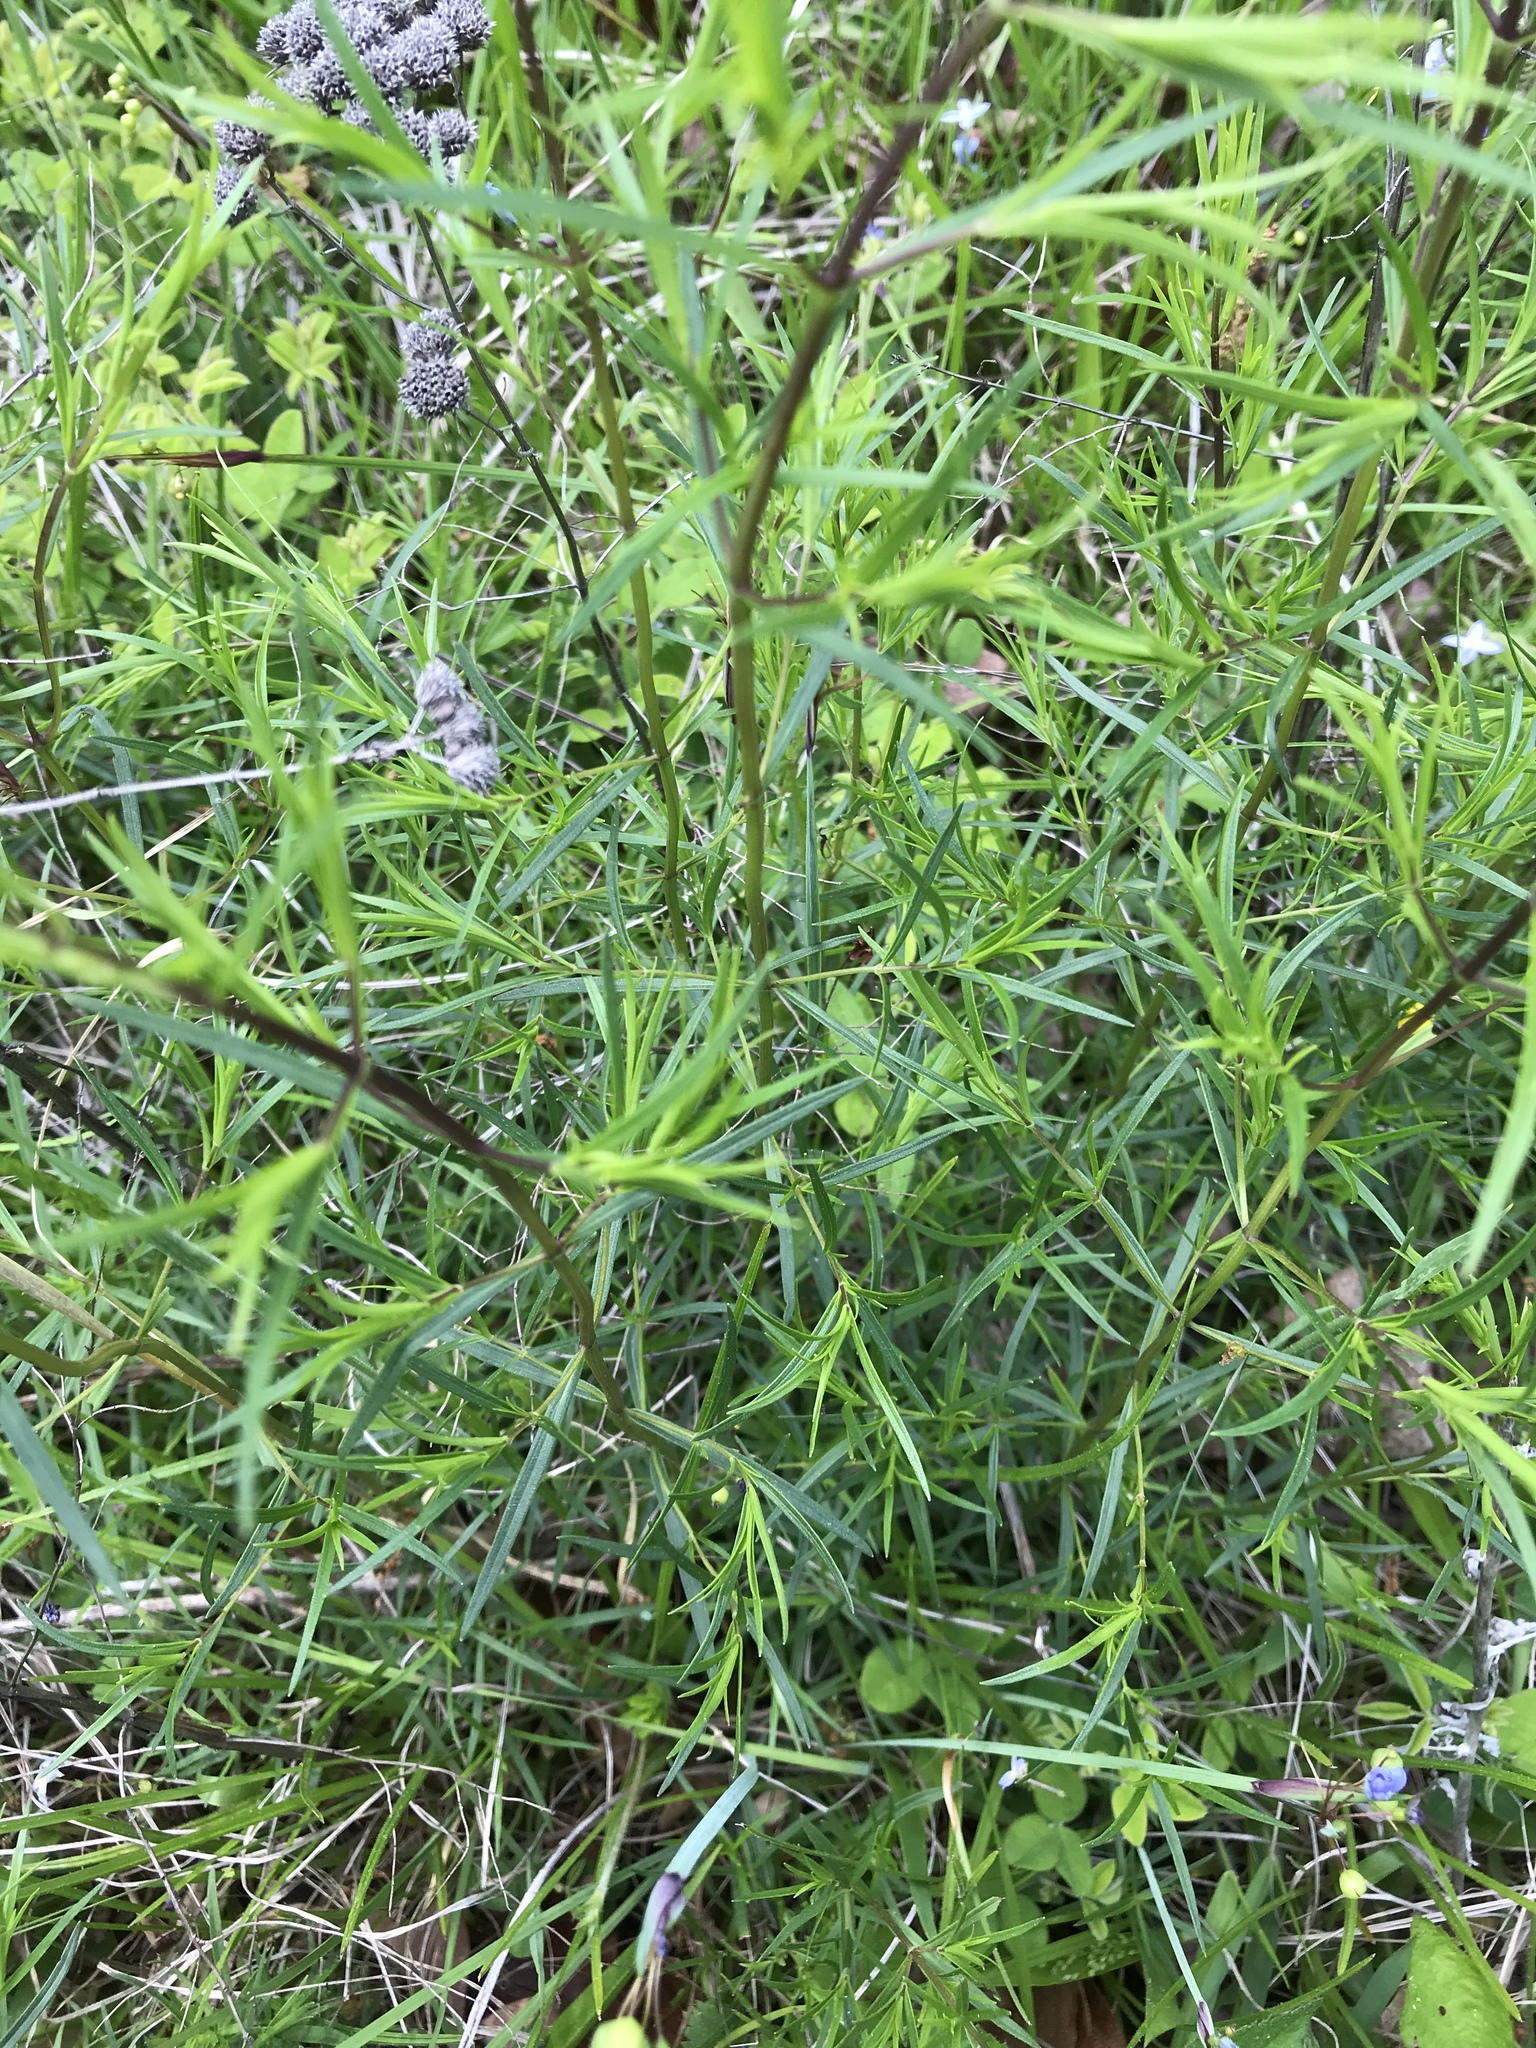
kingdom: Plantae
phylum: Tracheophyta
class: Magnoliopsida
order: Lamiales
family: Lamiaceae
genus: Pycnanthemum
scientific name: Pycnanthemum tenuifolium
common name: Narrow-leaf mountain-mint
